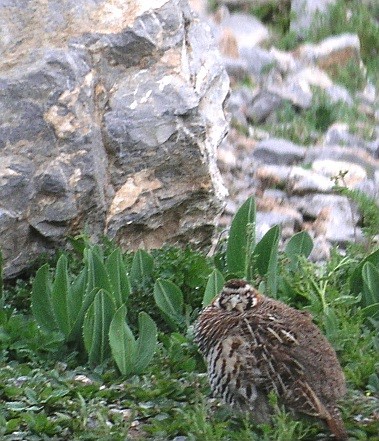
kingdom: Animalia
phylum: Chordata
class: Aves
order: Galliformes
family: Phasianidae
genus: Perdix
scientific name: Perdix hodgsoniae
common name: Tibetan partridge
